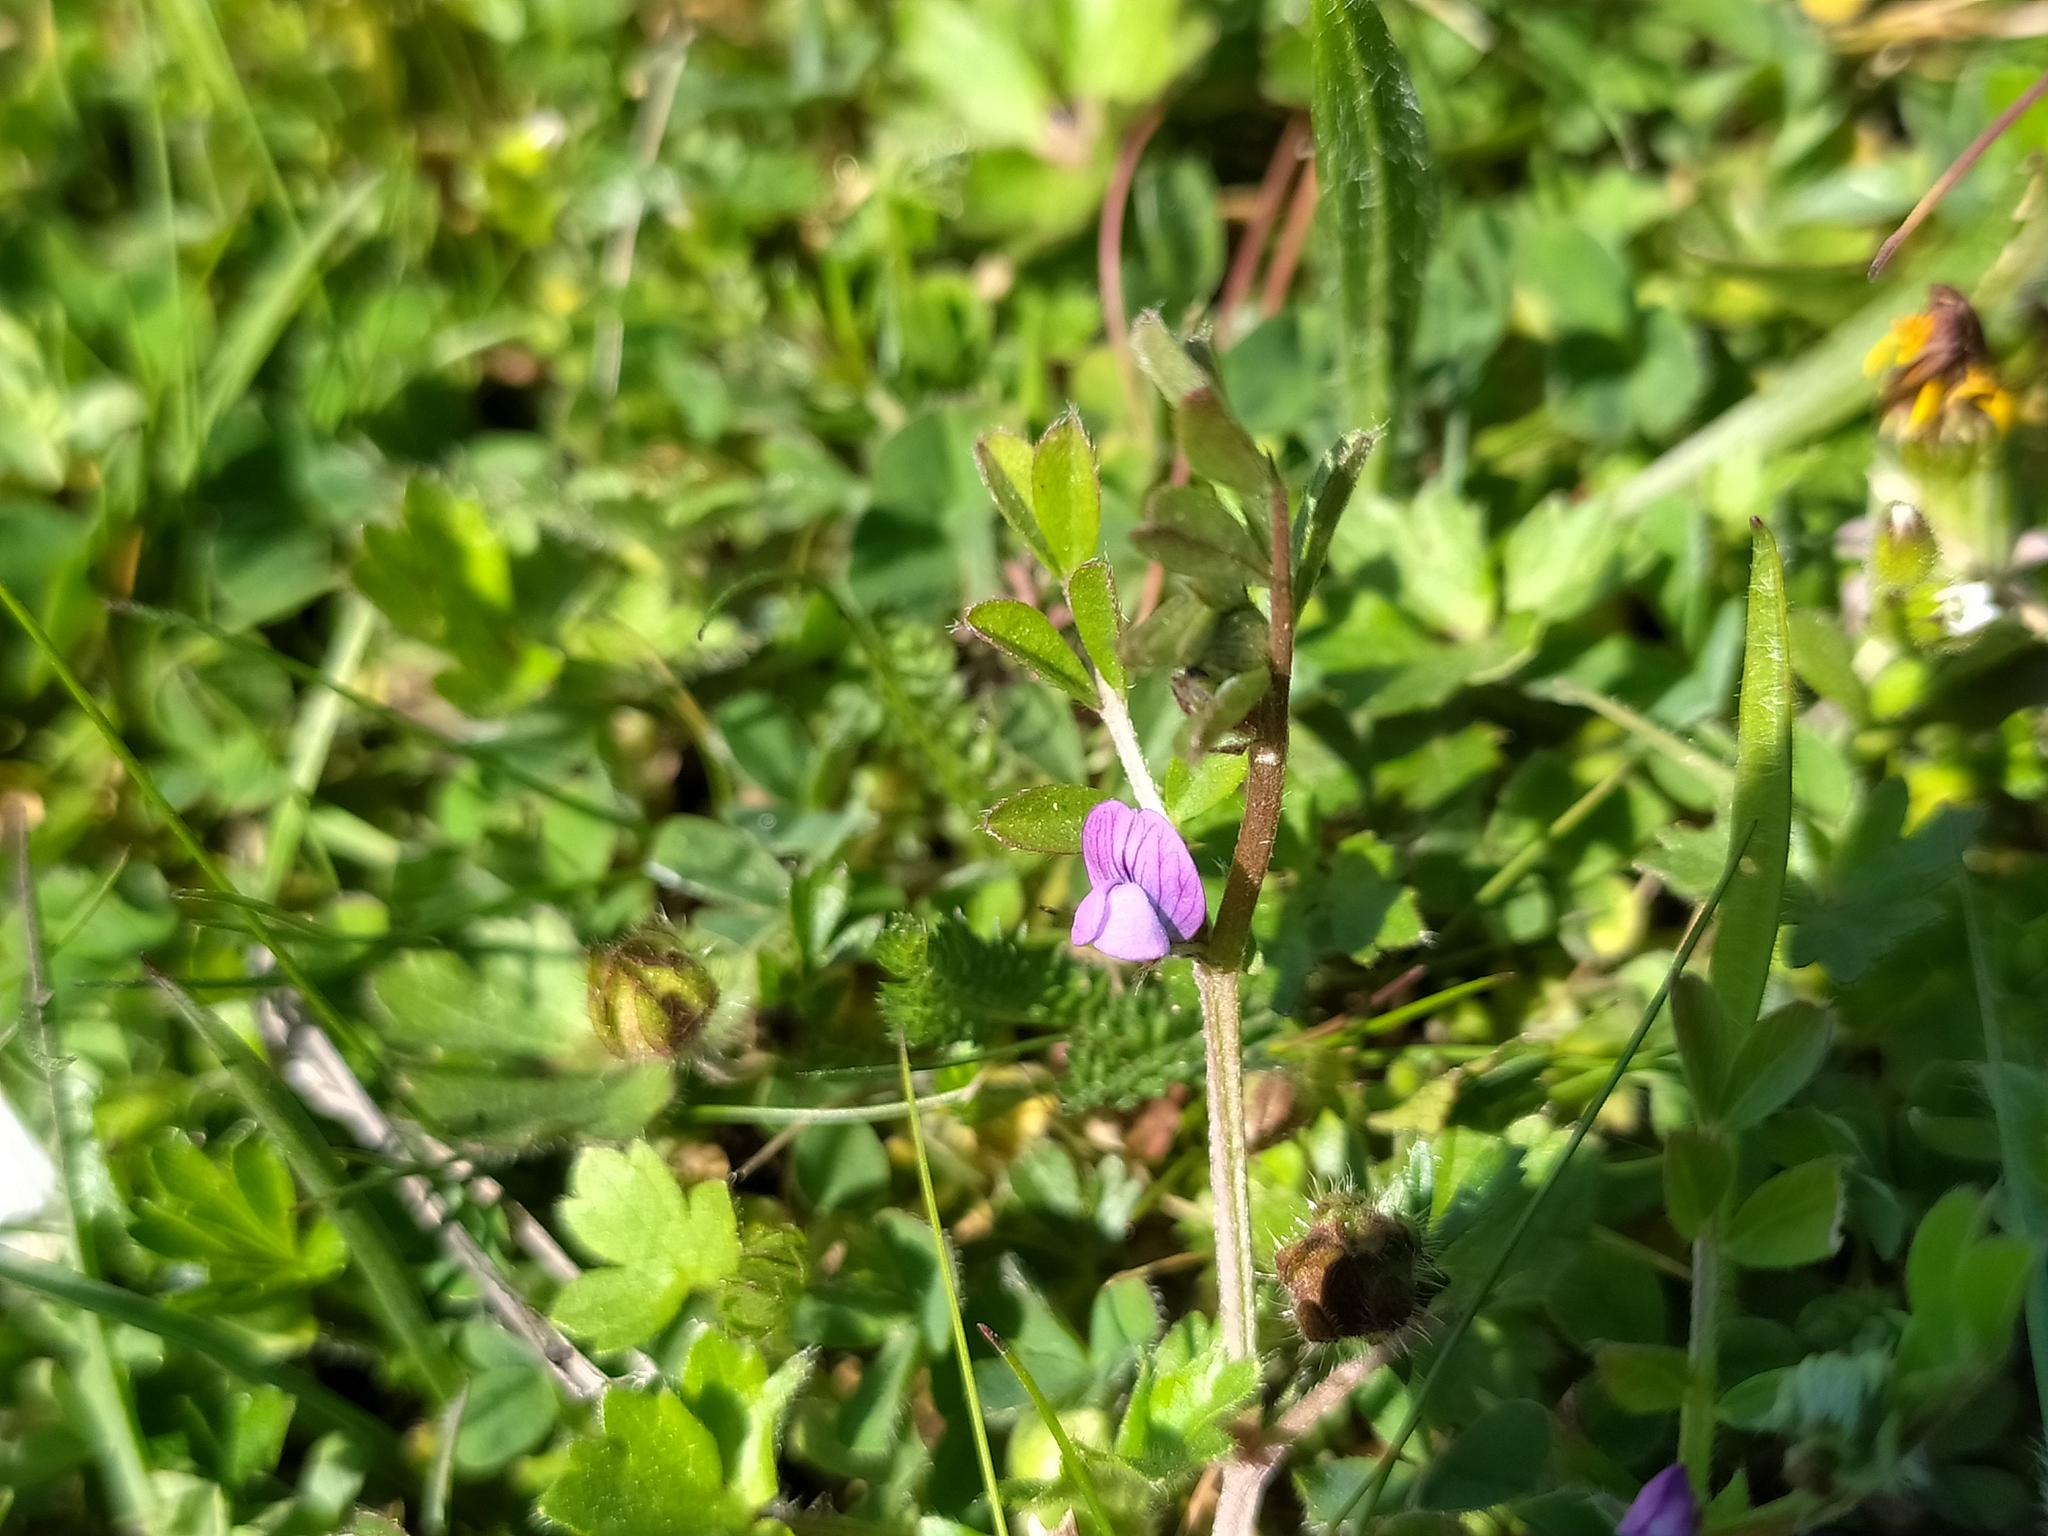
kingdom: Plantae
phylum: Tracheophyta
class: Magnoliopsida
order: Fabales
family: Fabaceae
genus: Vicia
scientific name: Vicia lathyroides
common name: Spring vetch
